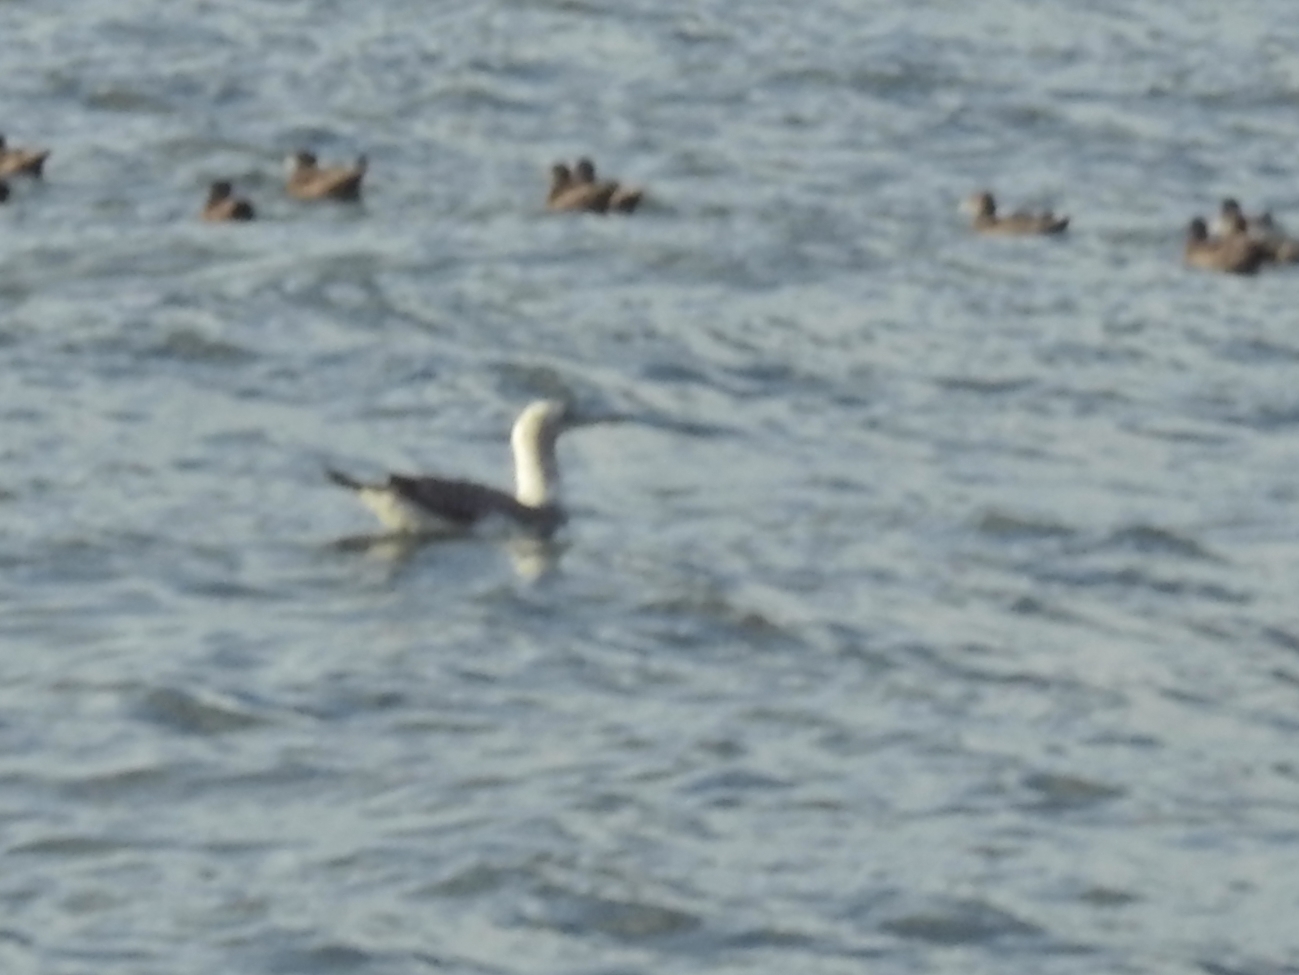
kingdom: Animalia
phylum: Chordata
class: Aves
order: Suliformes
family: Sulidae
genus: Morus
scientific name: Morus serrator
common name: Australasian gannet
